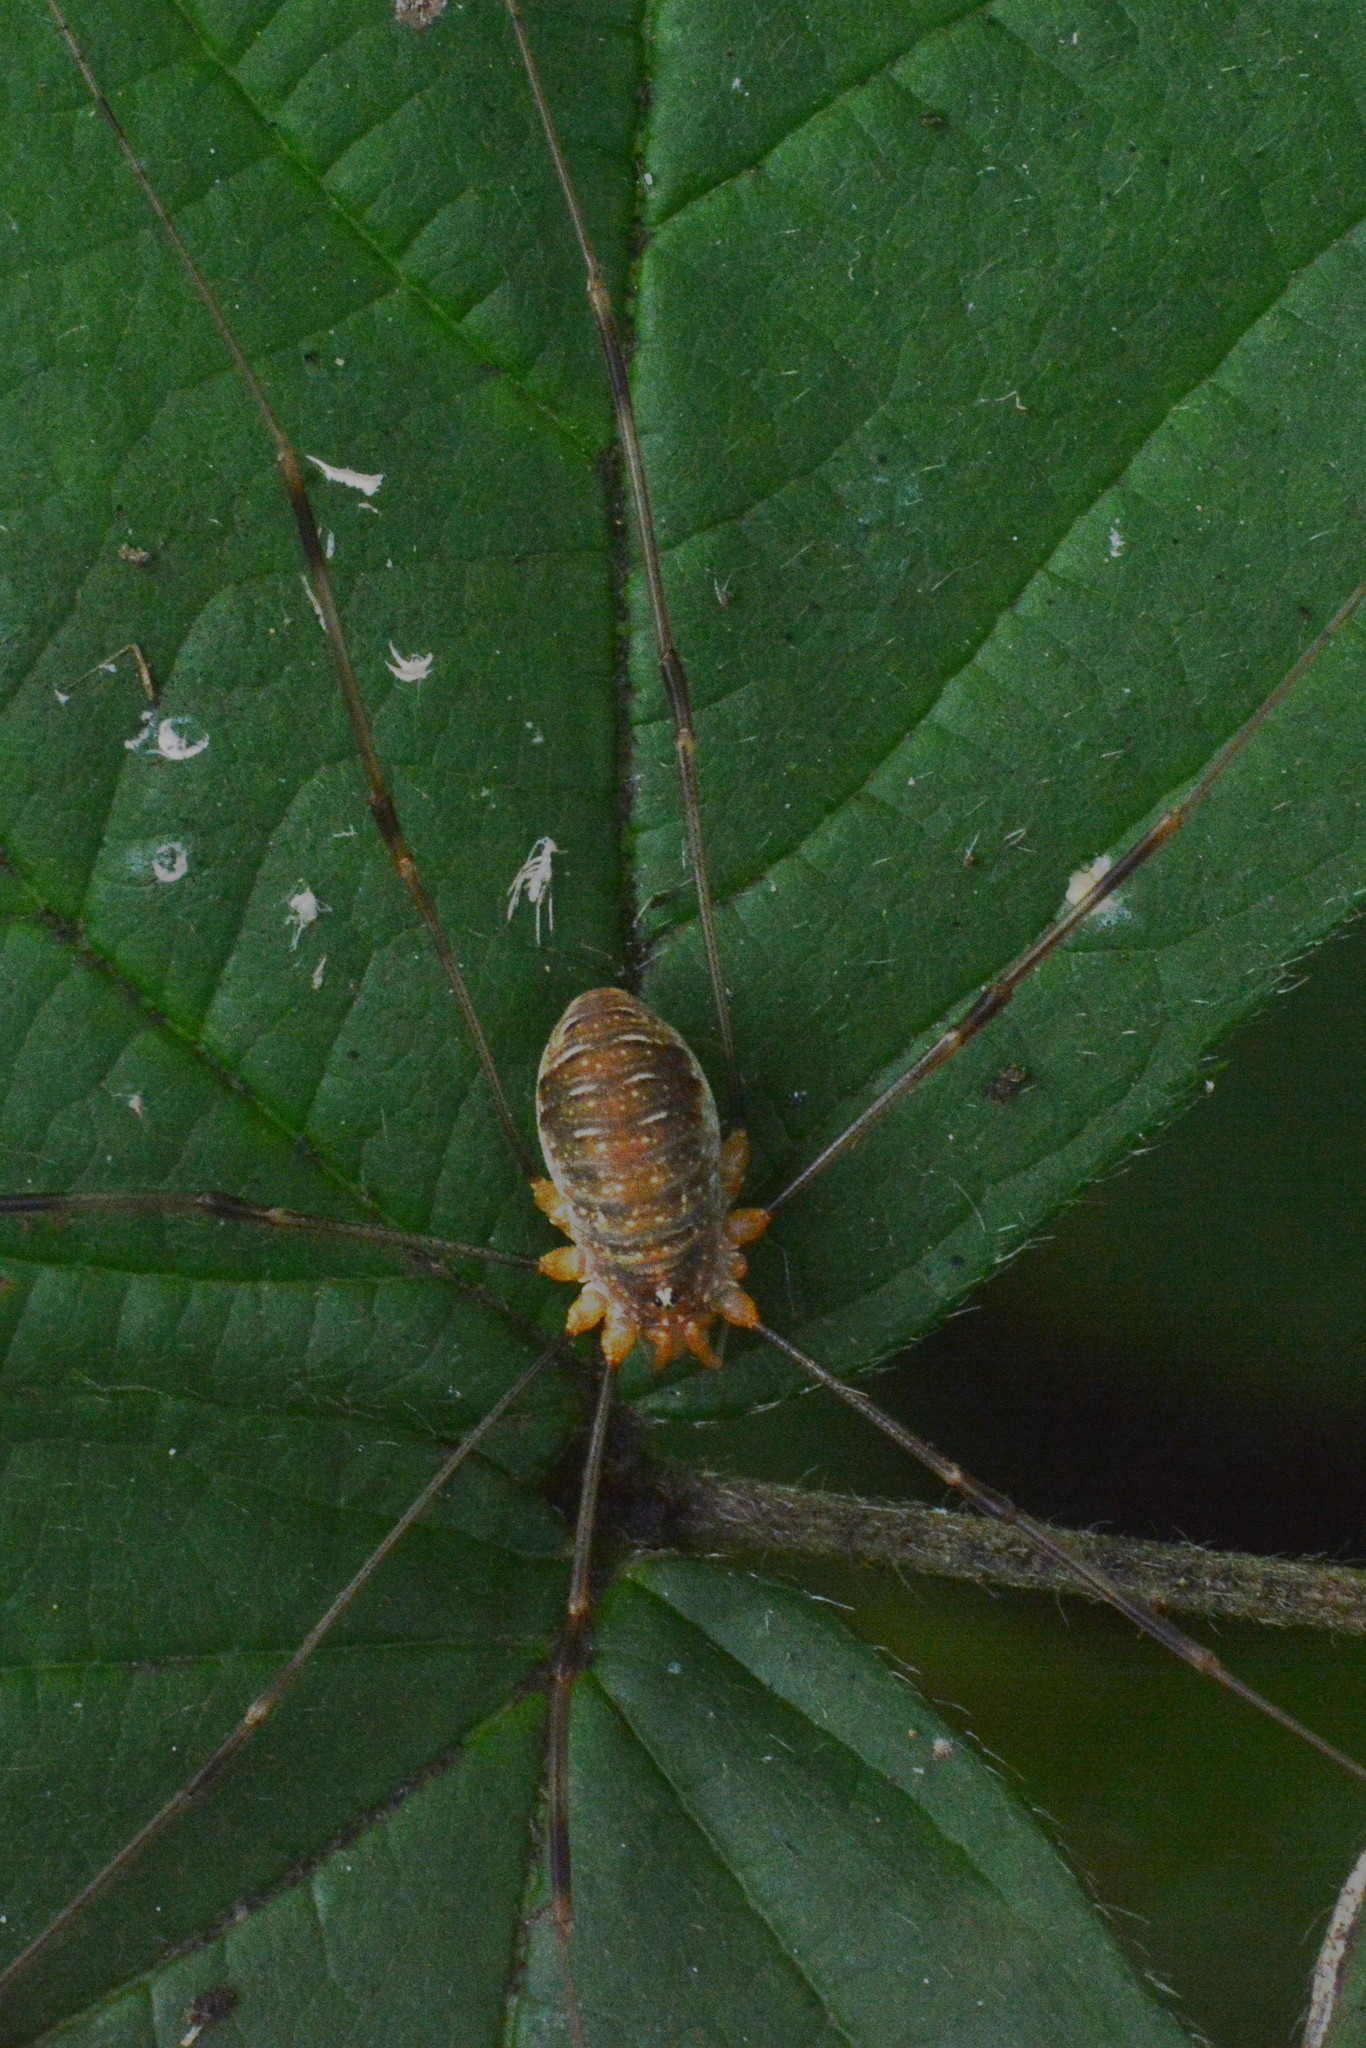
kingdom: Animalia
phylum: Arthropoda
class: Arachnida
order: Opiliones
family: Phalangiidae
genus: Opilio
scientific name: Opilio canestrinii
